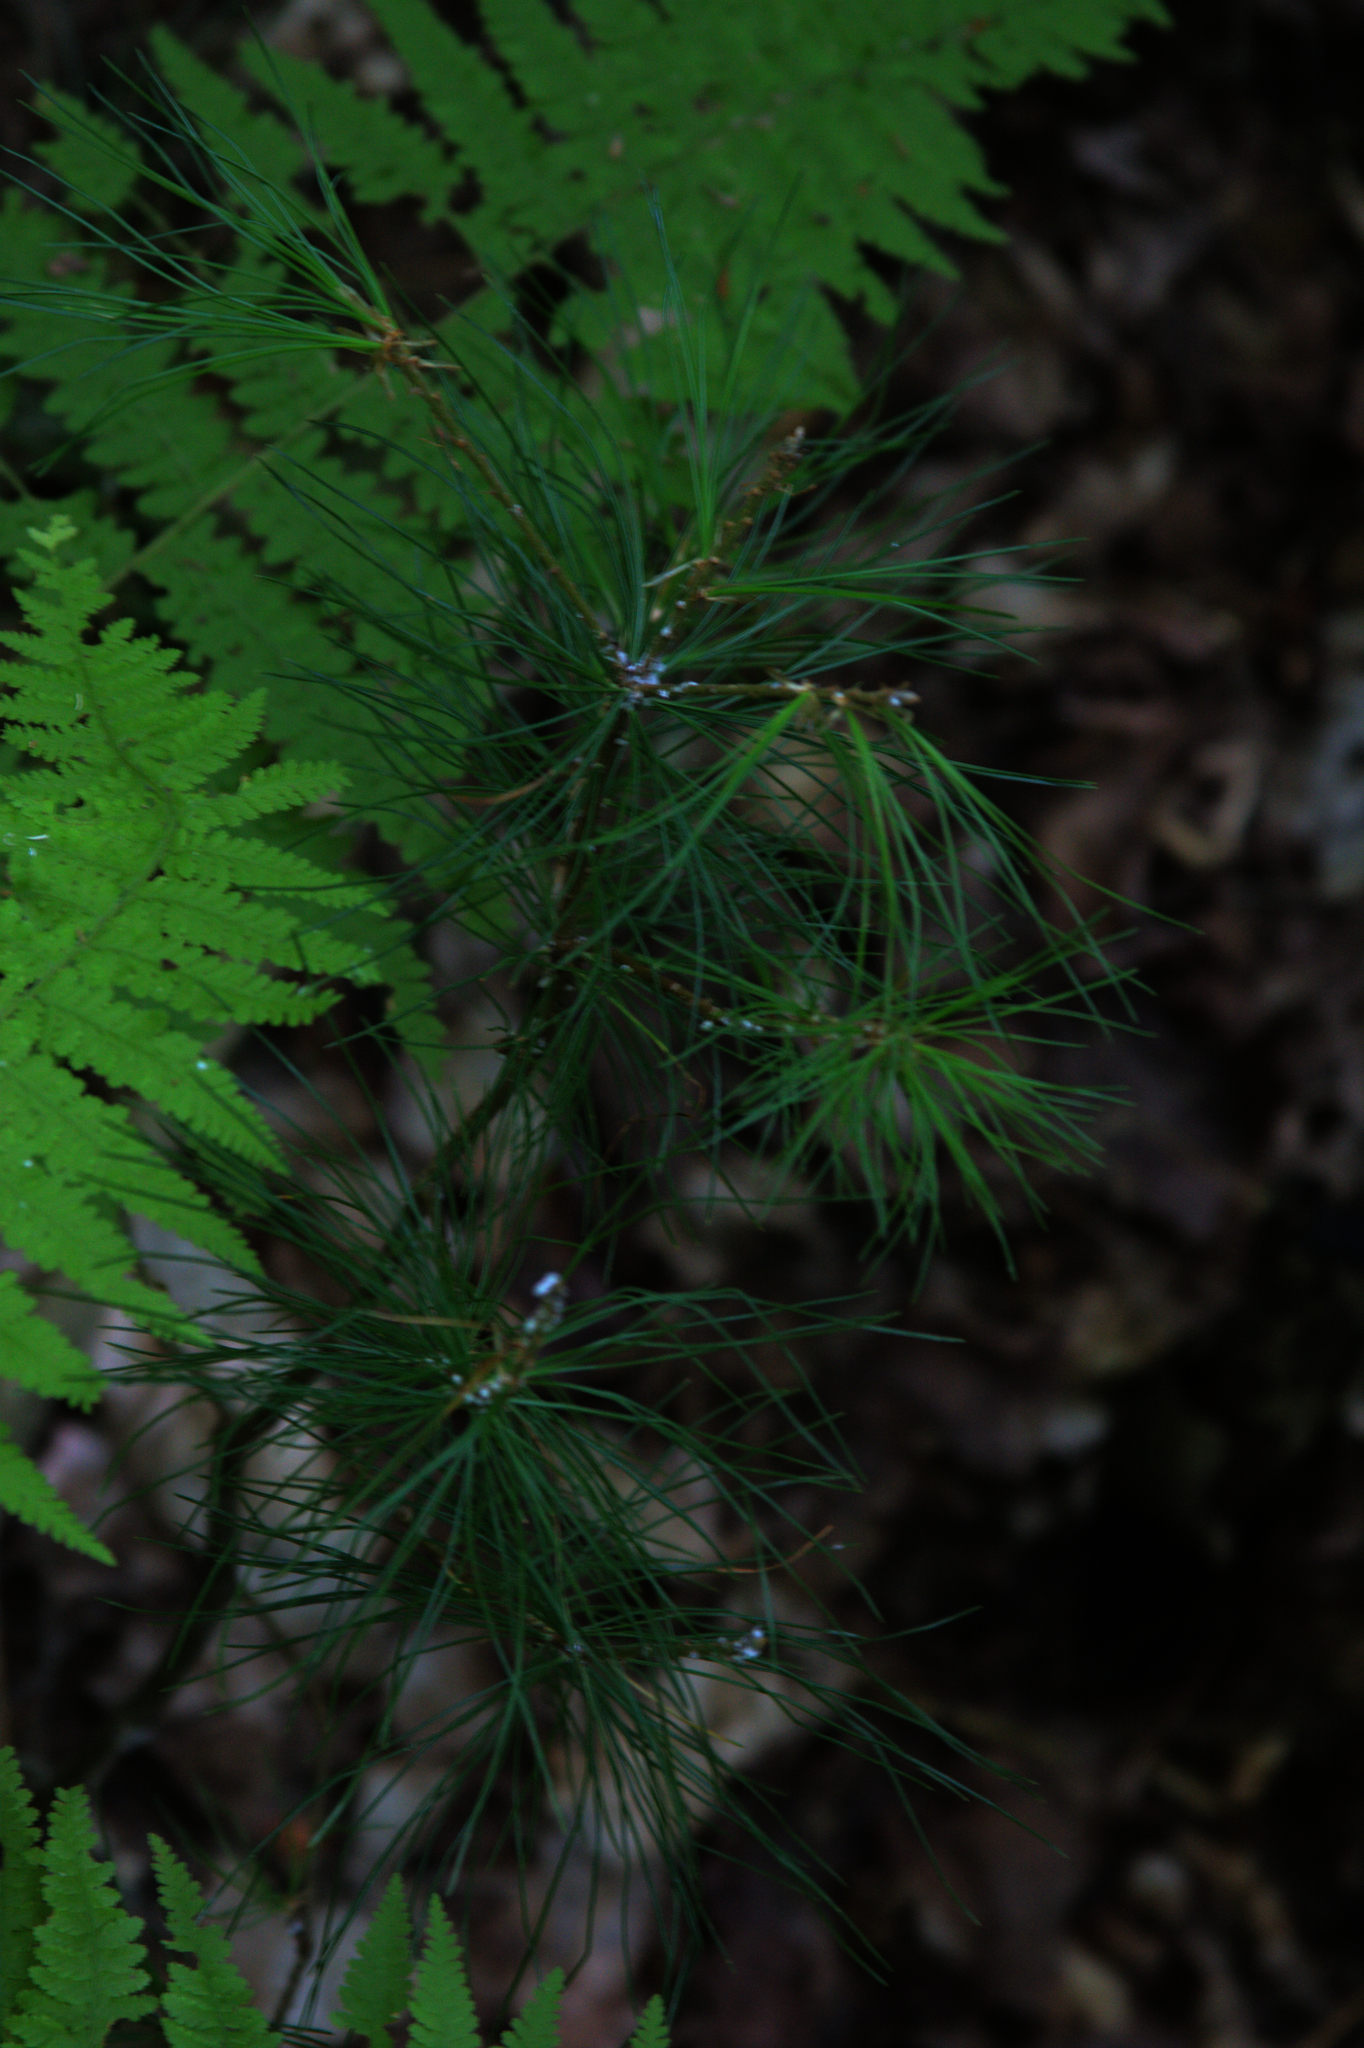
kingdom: Plantae
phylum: Tracheophyta
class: Pinopsida
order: Pinales
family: Pinaceae
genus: Pinus
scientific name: Pinus strobus
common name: Weymouth pine
